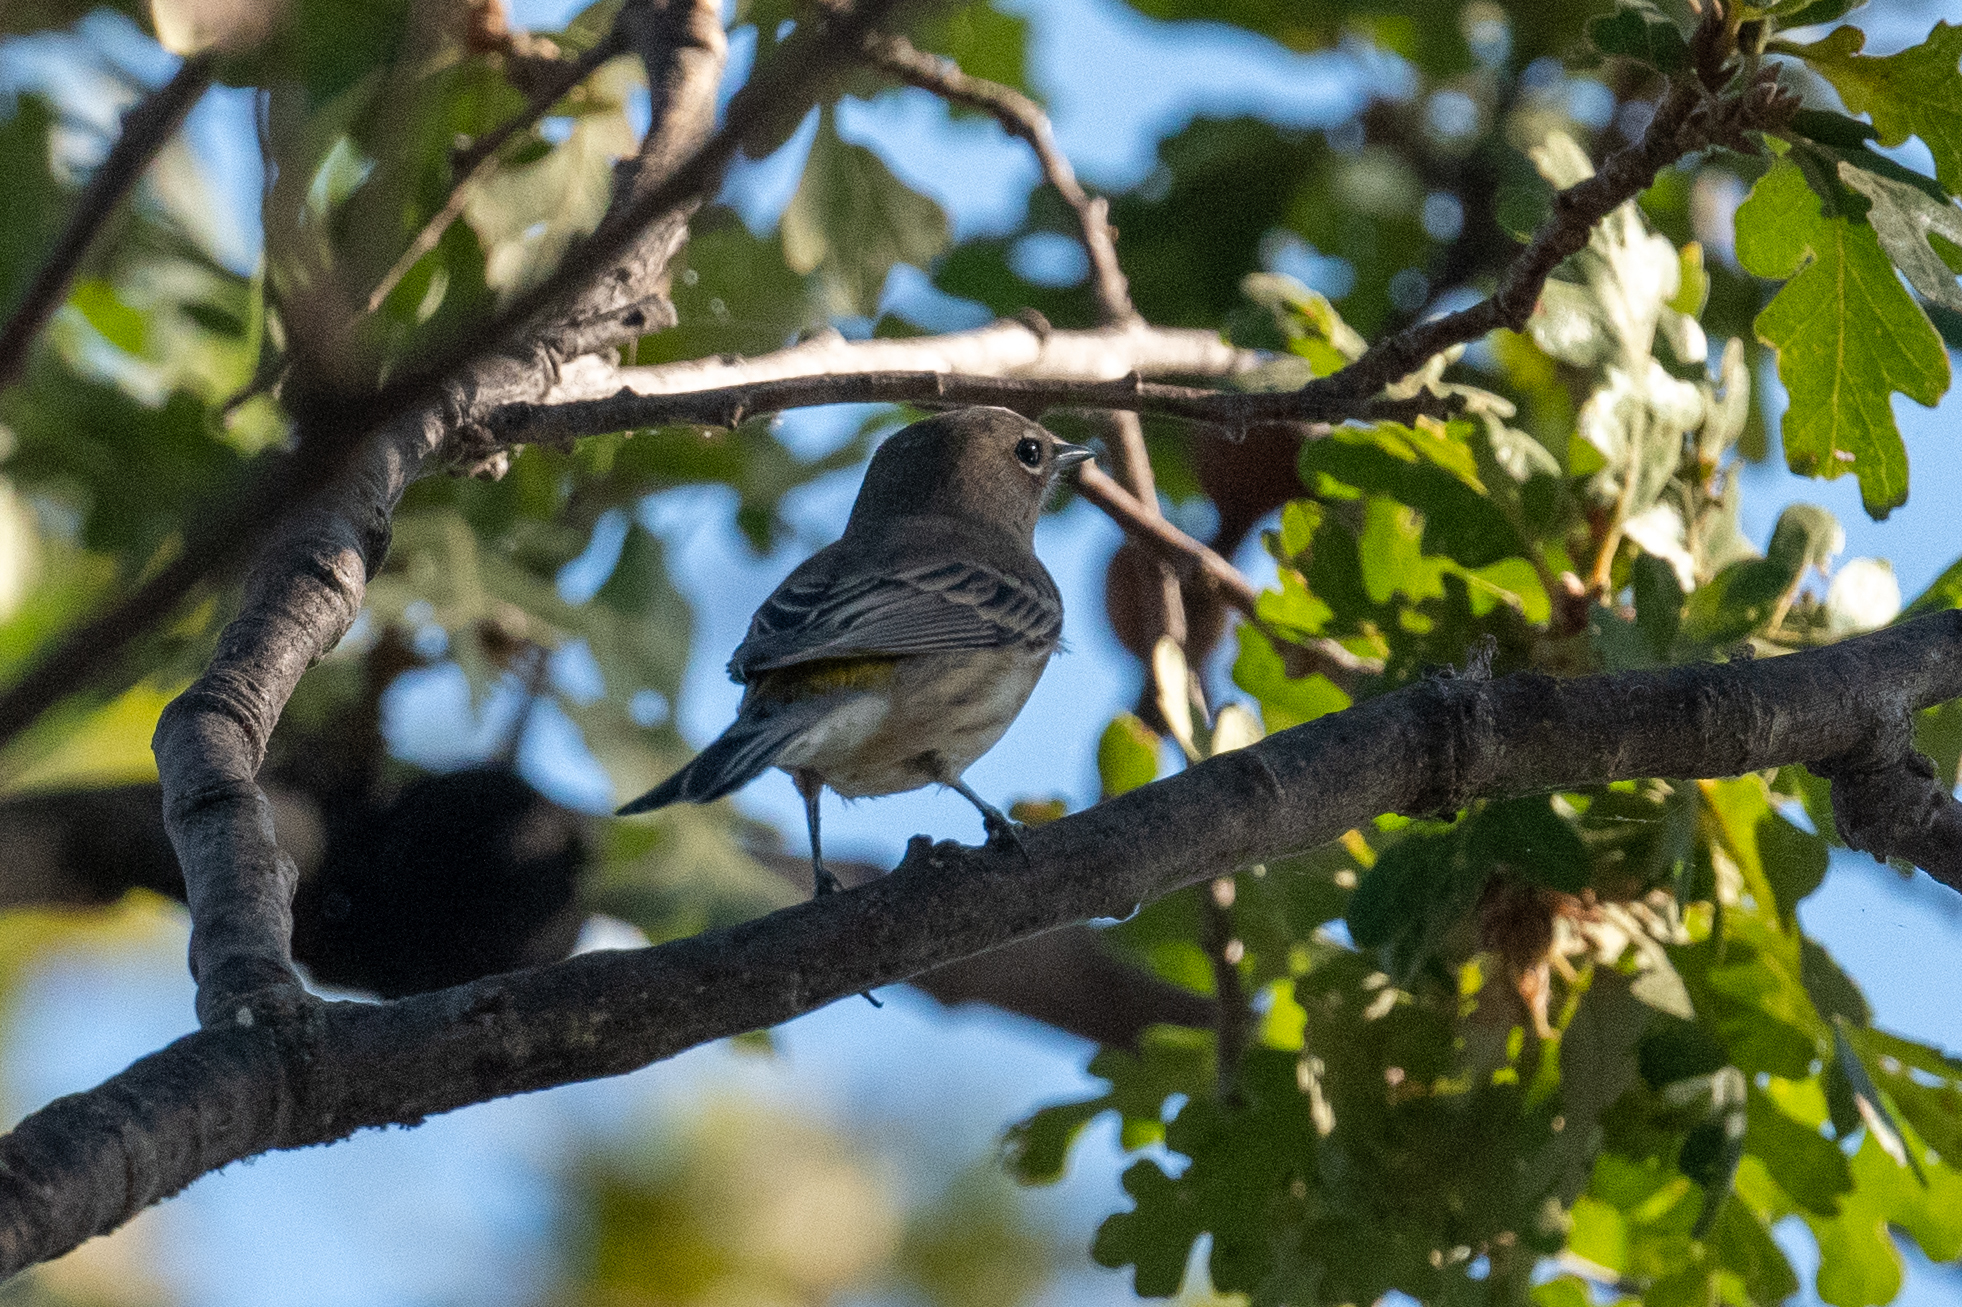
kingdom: Animalia
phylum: Chordata
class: Aves
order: Passeriformes
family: Parulidae
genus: Setophaga
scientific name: Setophaga coronata
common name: Myrtle warbler
